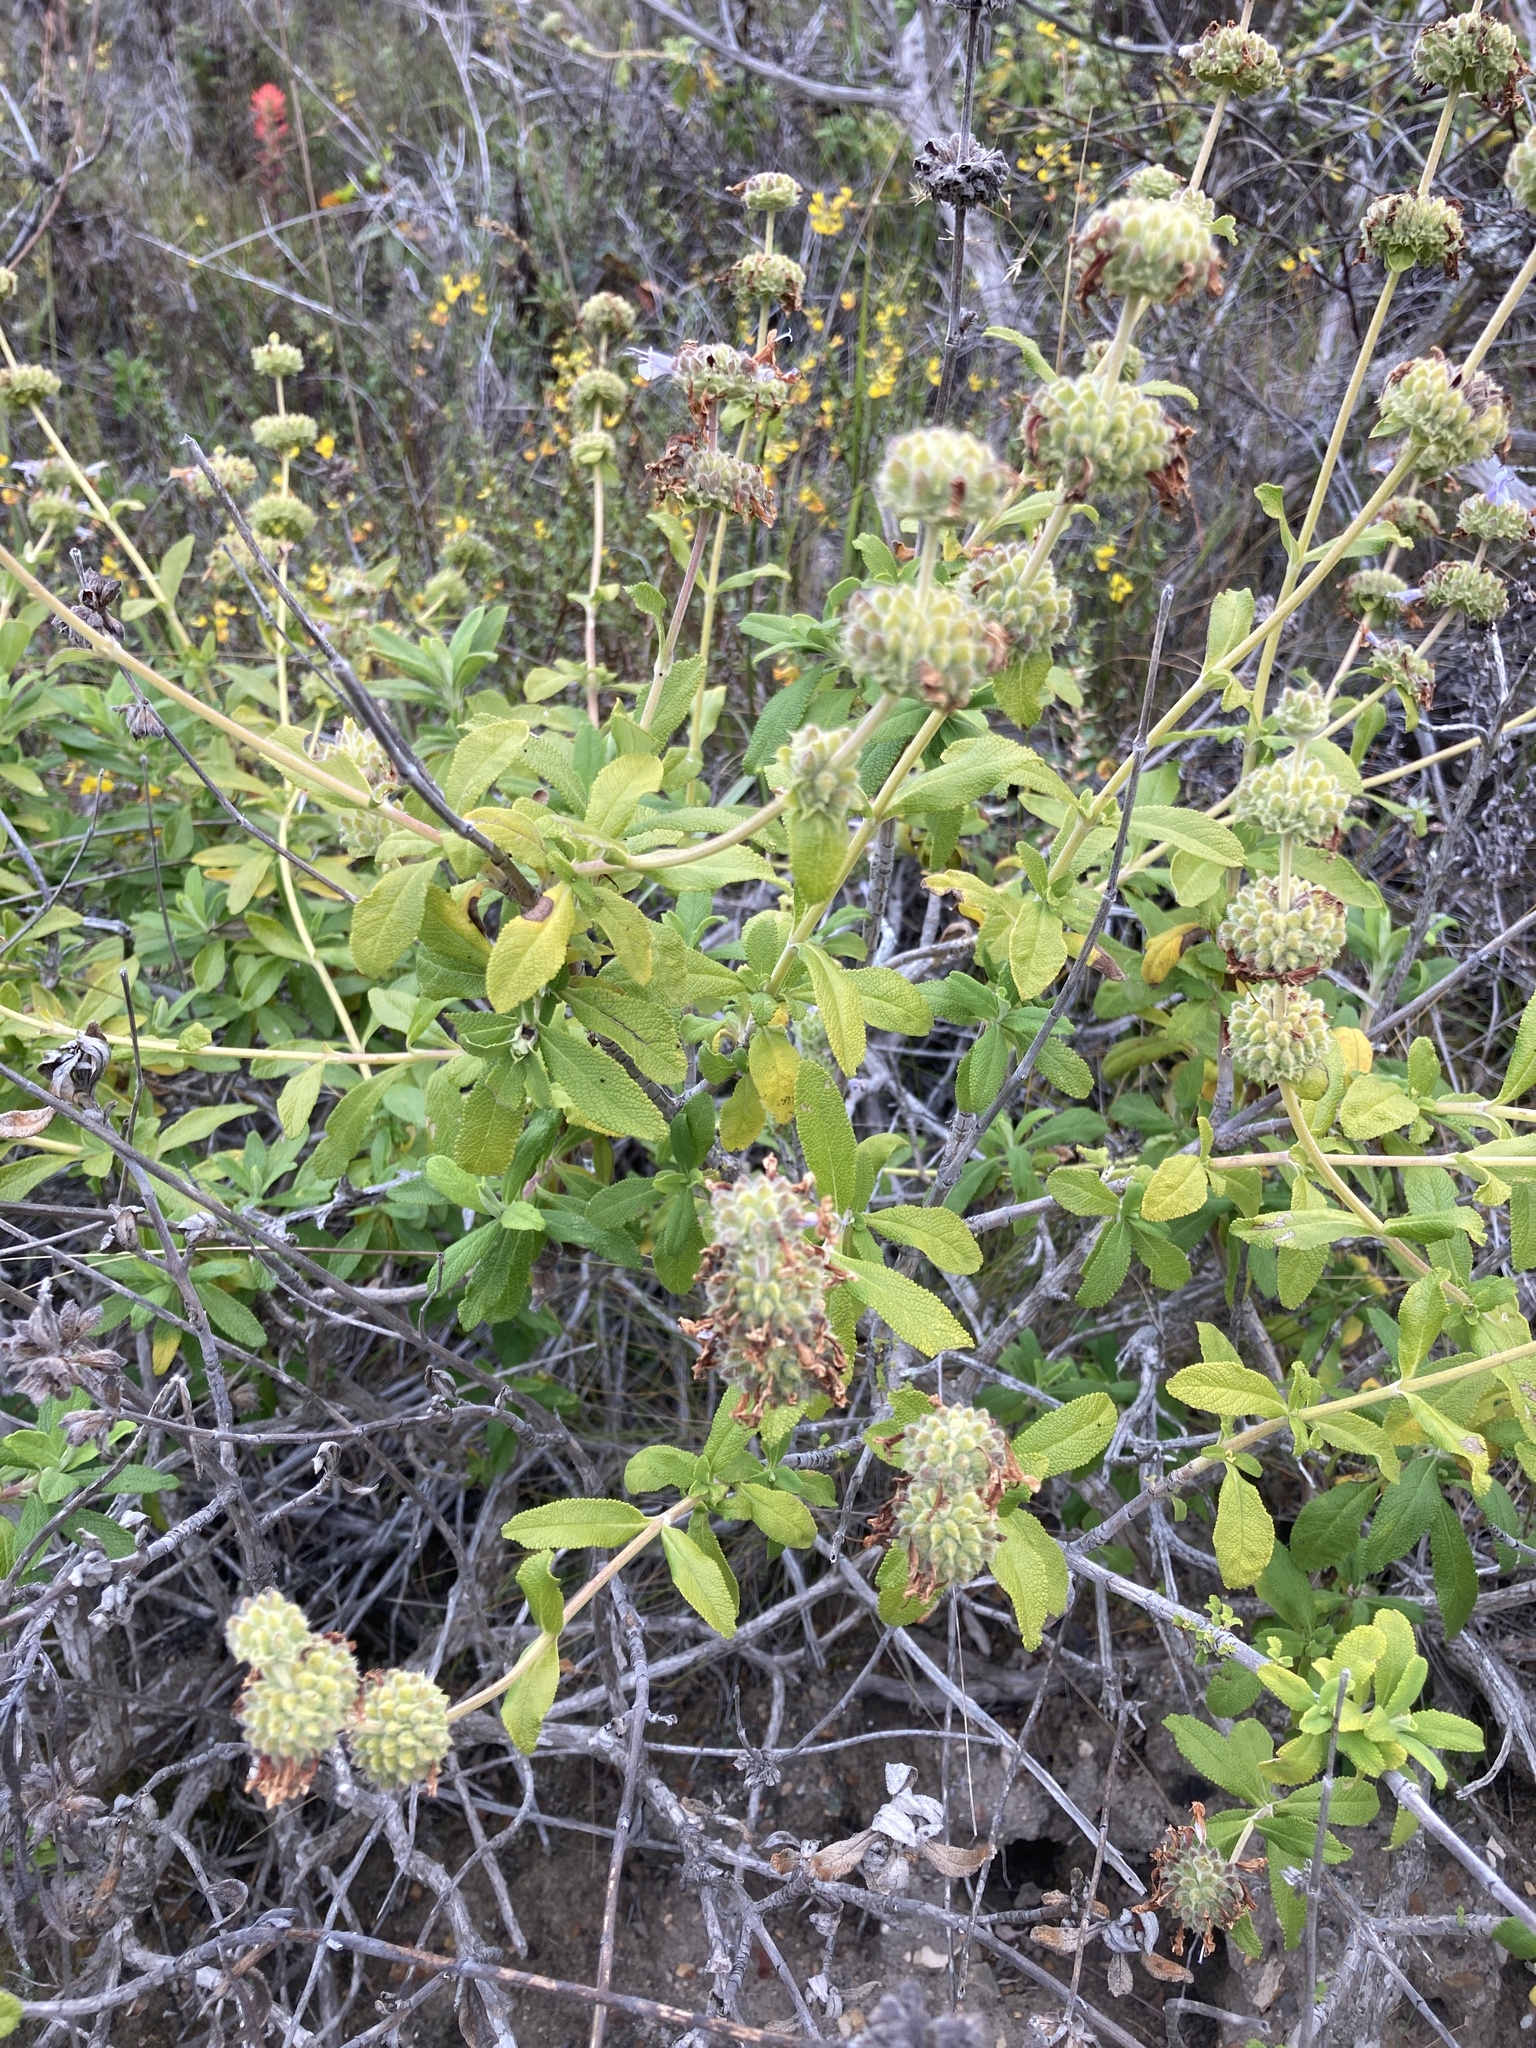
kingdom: Plantae
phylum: Tracheophyta
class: Magnoliopsida
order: Lamiales
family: Lamiaceae
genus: Salvia
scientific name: Salvia mellifera
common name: Black sage
